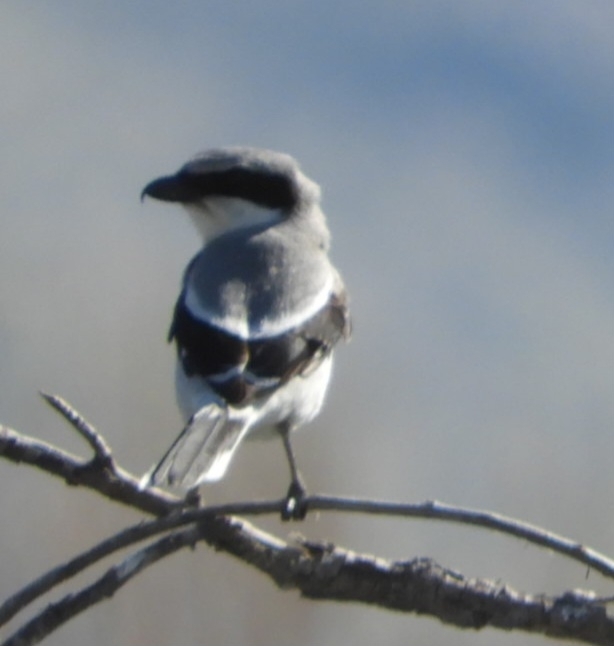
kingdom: Animalia
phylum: Chordata
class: Aves
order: Passeriformes
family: Laniidae
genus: Lanius
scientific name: Lanius ludovicianus
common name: Loggerhead shrike
